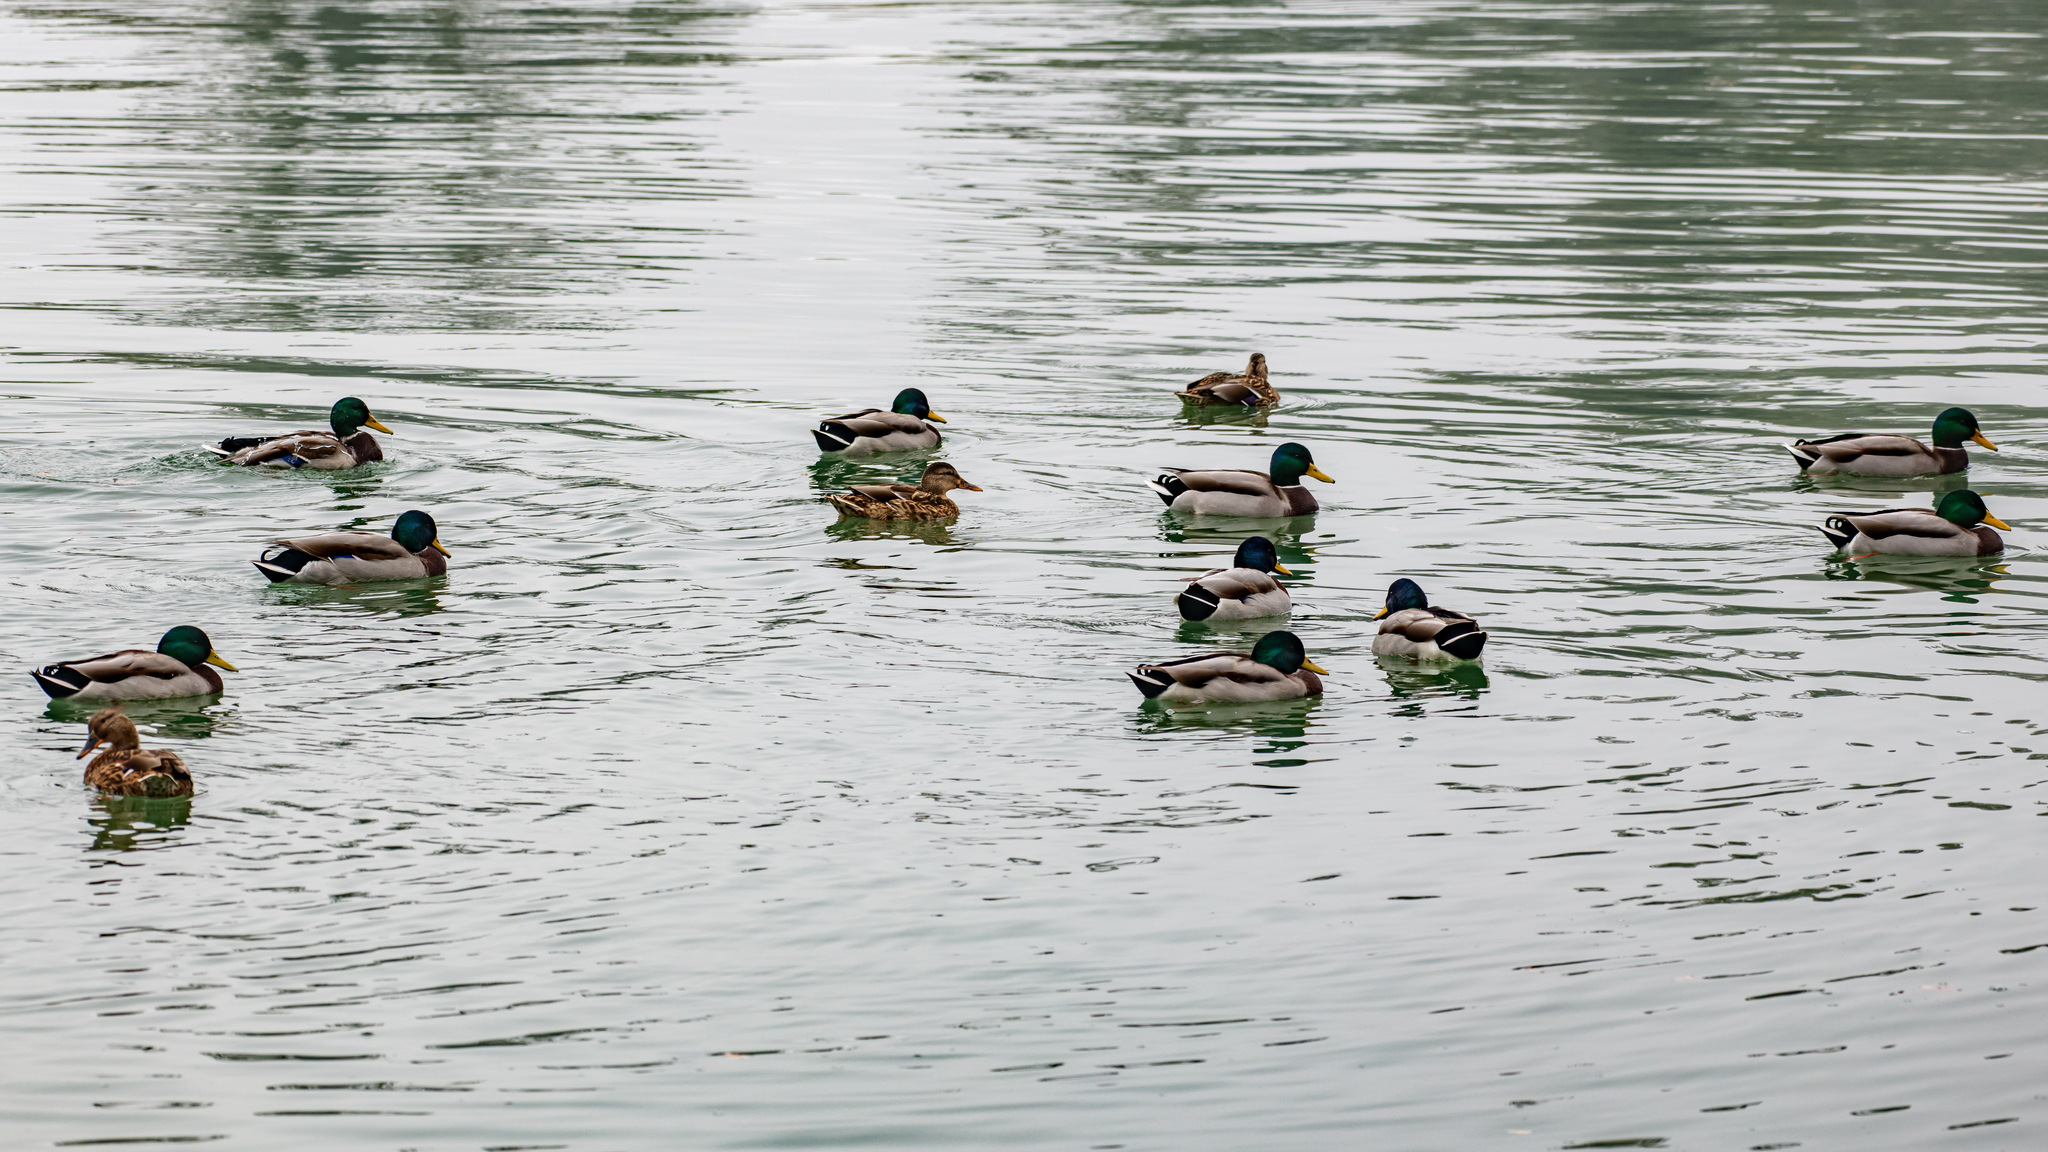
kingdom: Animalia
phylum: Chordata
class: Aves
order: Anseriformes
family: Anatidae
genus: Anas
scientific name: Anas platyrhynchos
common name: Mallard
